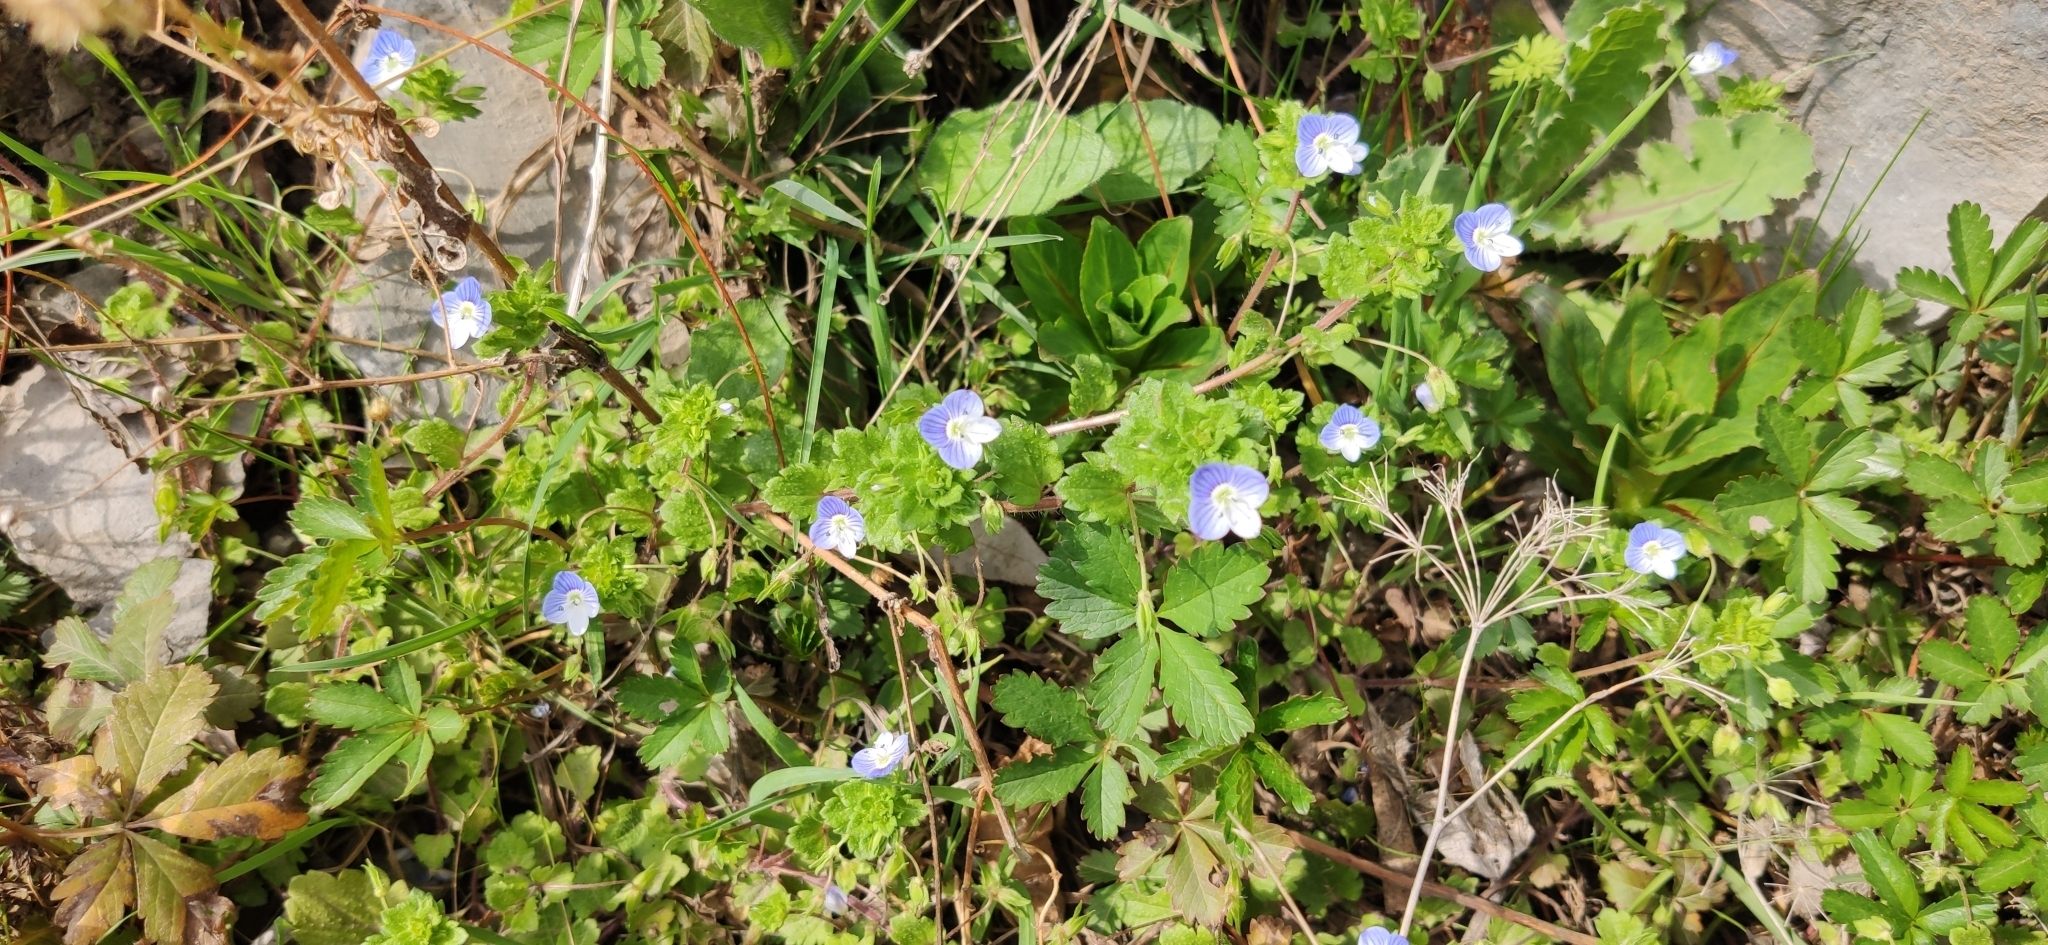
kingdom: Plantae
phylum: Tracheophyta
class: Magnoliopsida
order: Lamiales
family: Plantaginaceae
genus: Veronica
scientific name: Veronica persica
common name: Common field-speedwell
